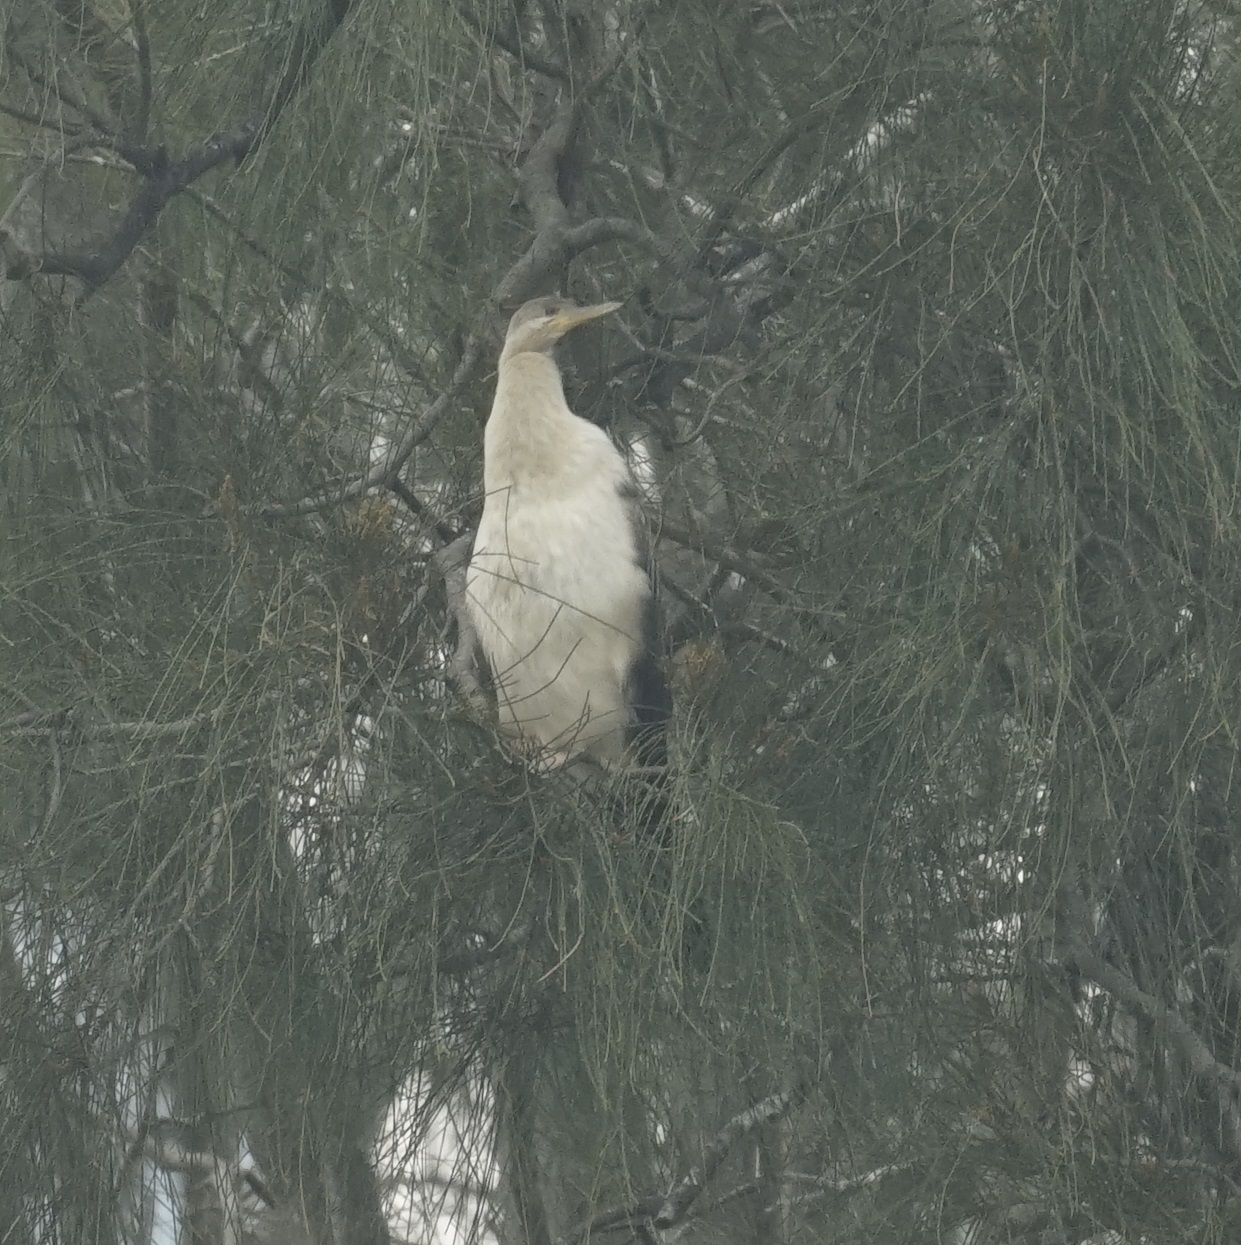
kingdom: Animalia
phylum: Chordata
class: Aves
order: Suliformes
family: Anhingidae
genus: Anhinga
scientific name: Anhinga novaehollandiae
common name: Australasian darter
